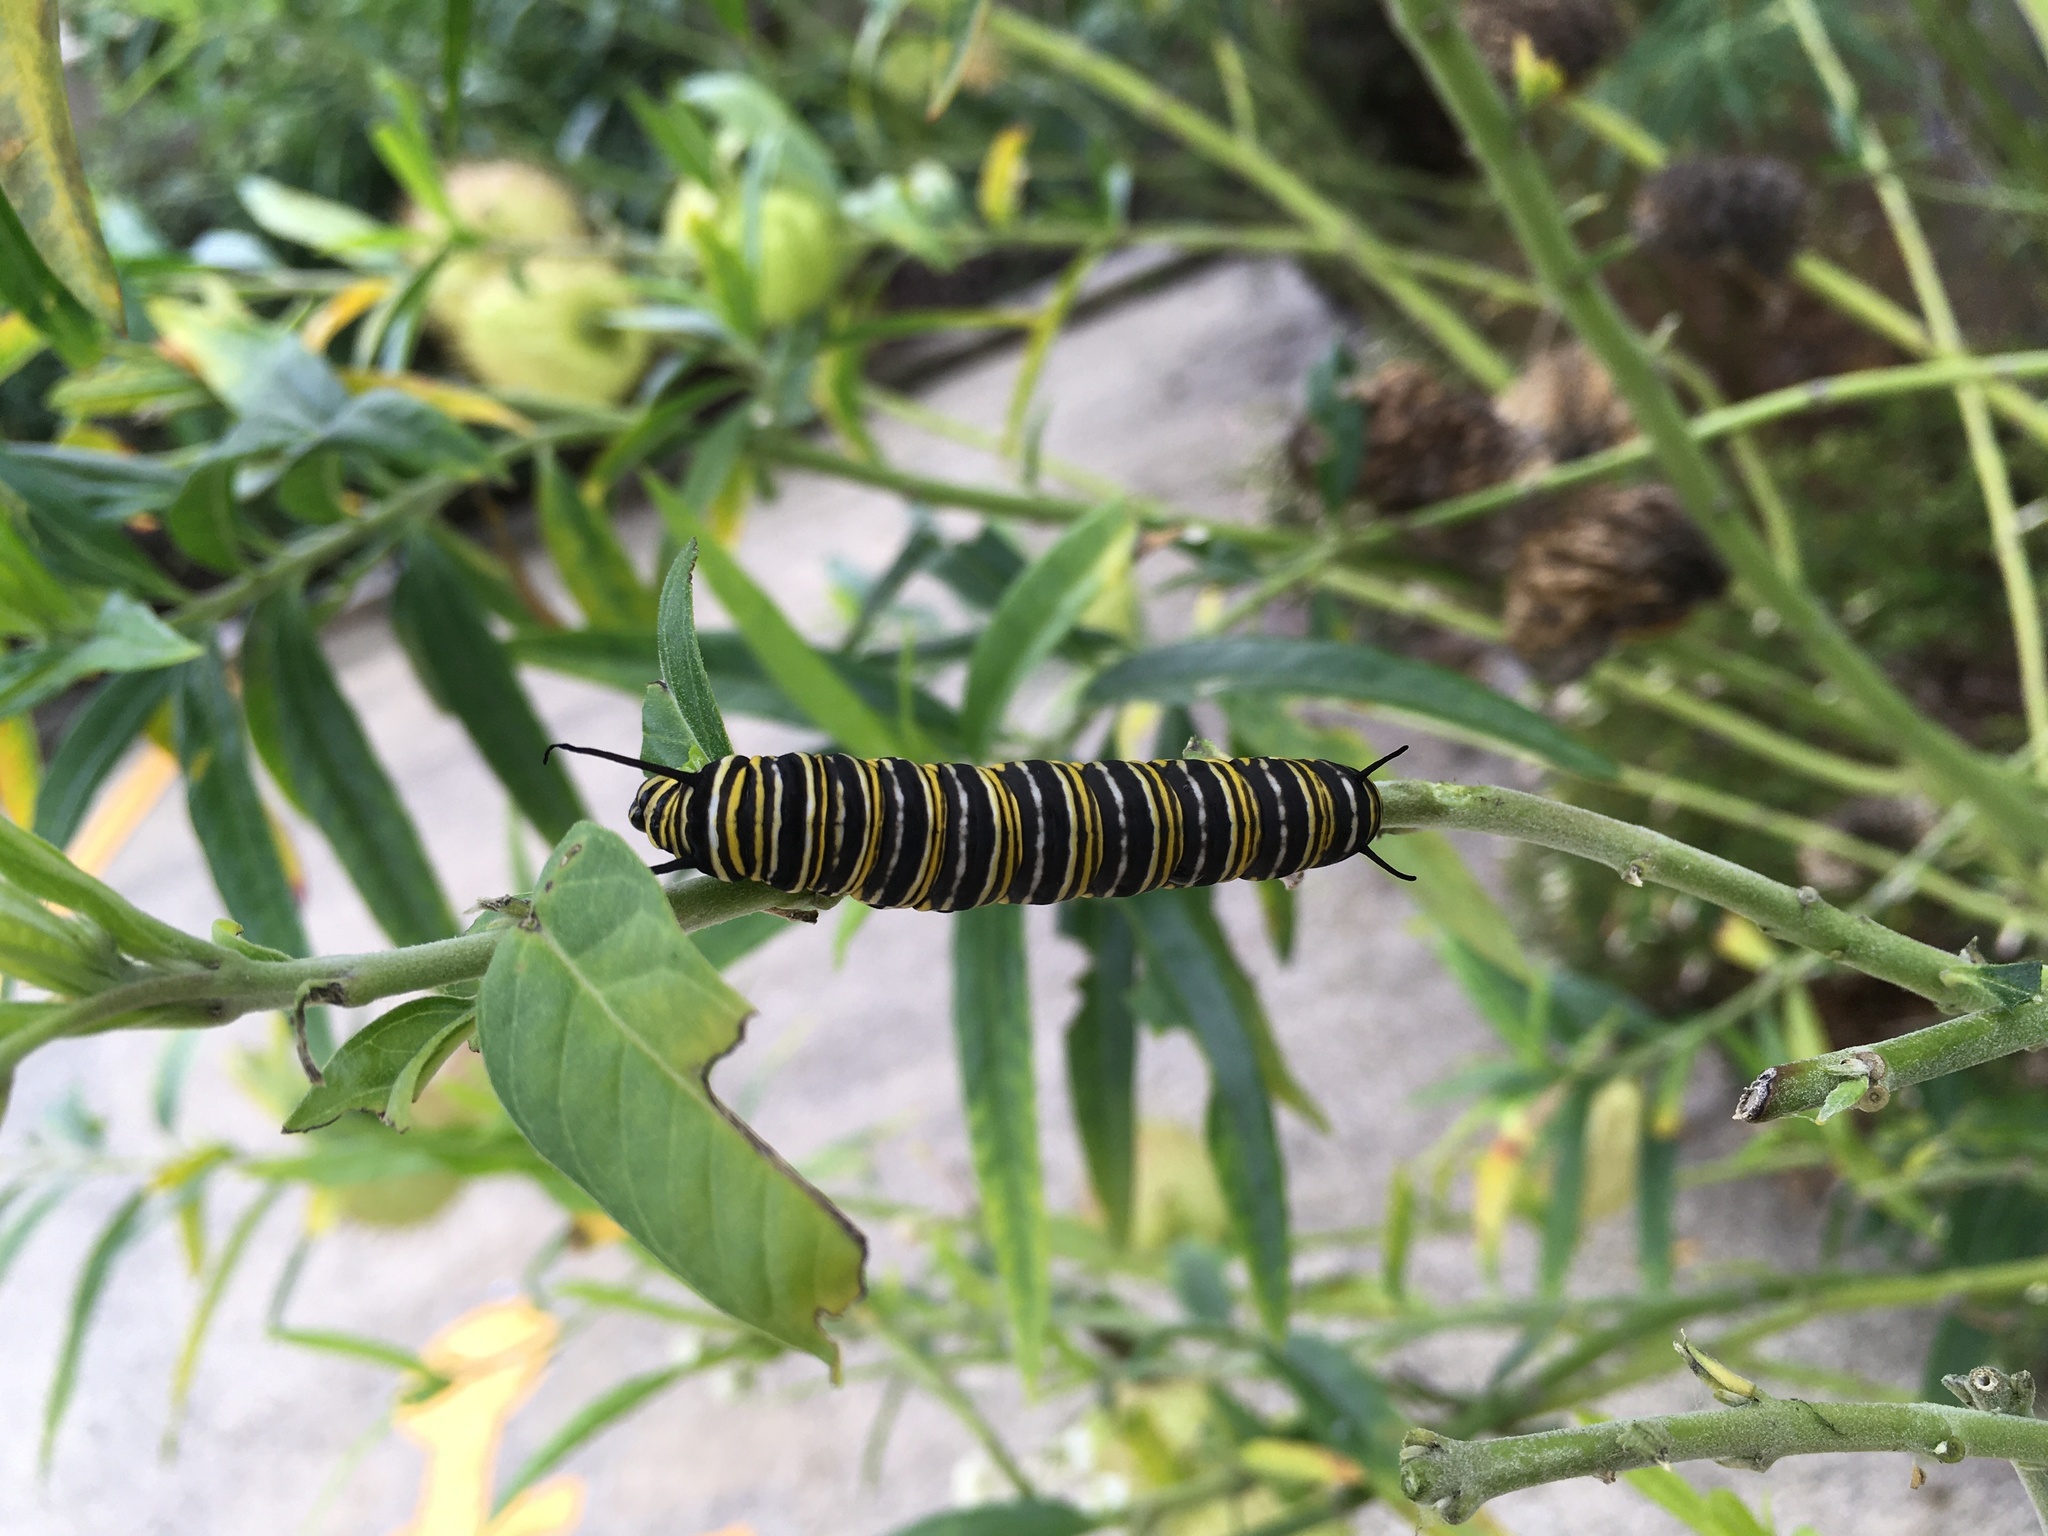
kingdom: Animalia
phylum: Arthropoda
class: Insecta
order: Lepidoptera
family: Nymphalidae
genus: Danaus
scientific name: Danaus plexippus
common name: Monarch
